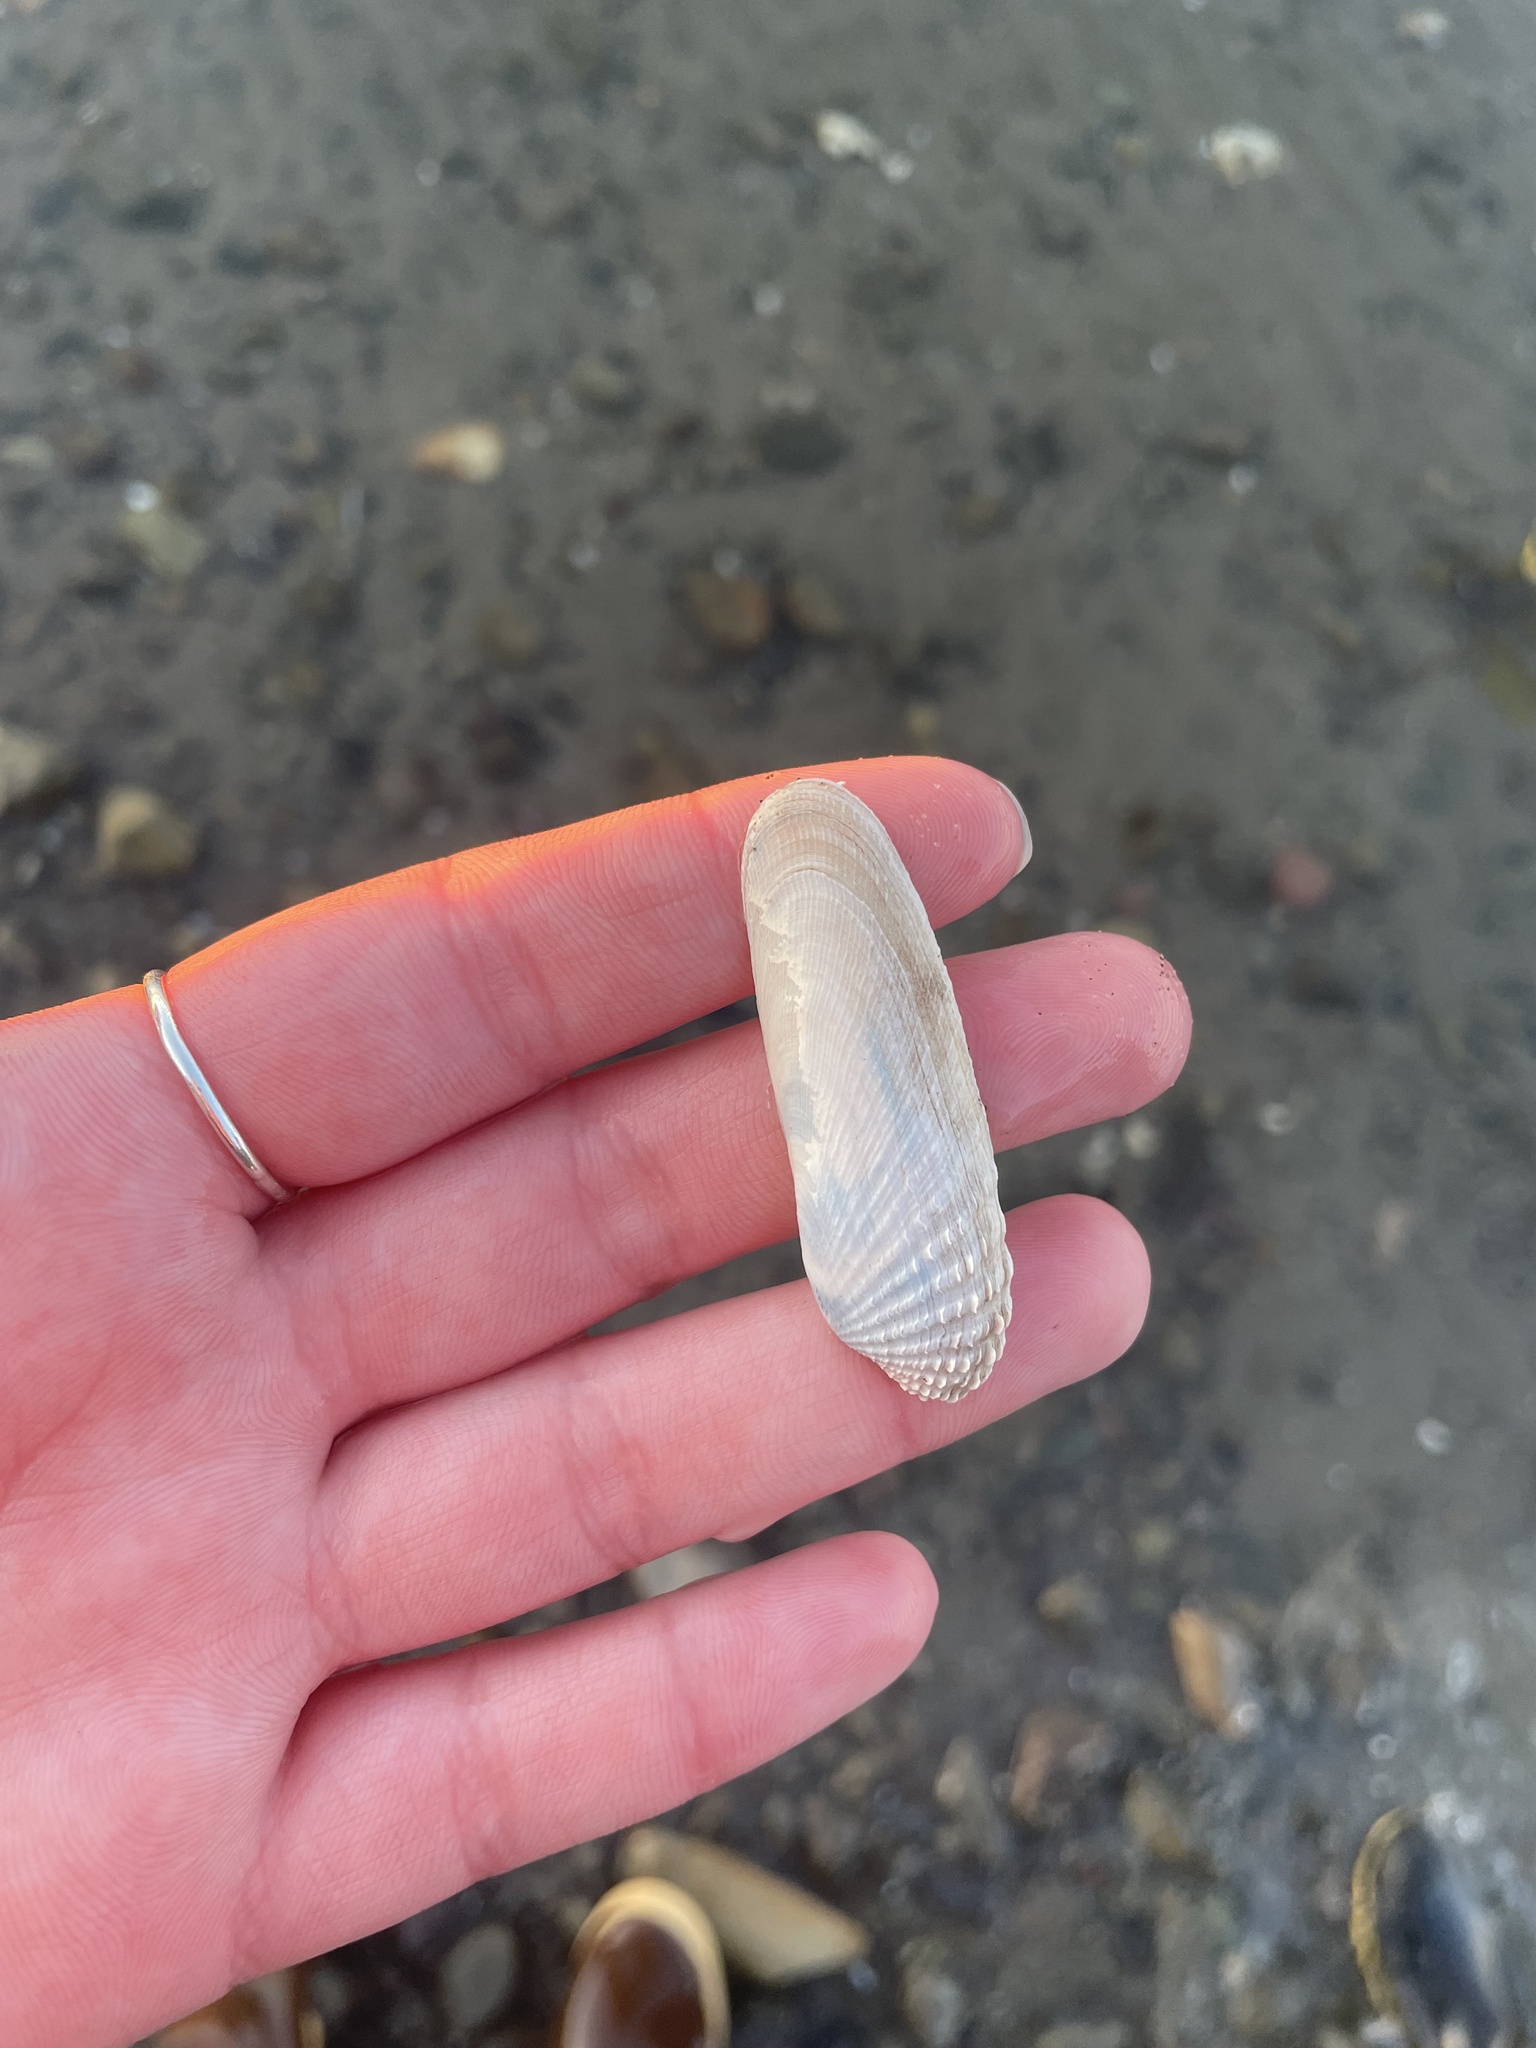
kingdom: Animalia
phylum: Mollusca
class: Bivalvia
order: Venerida
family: Veneridae
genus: Petricolaria
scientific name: Petricolaria pholadiformis
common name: American piddock
